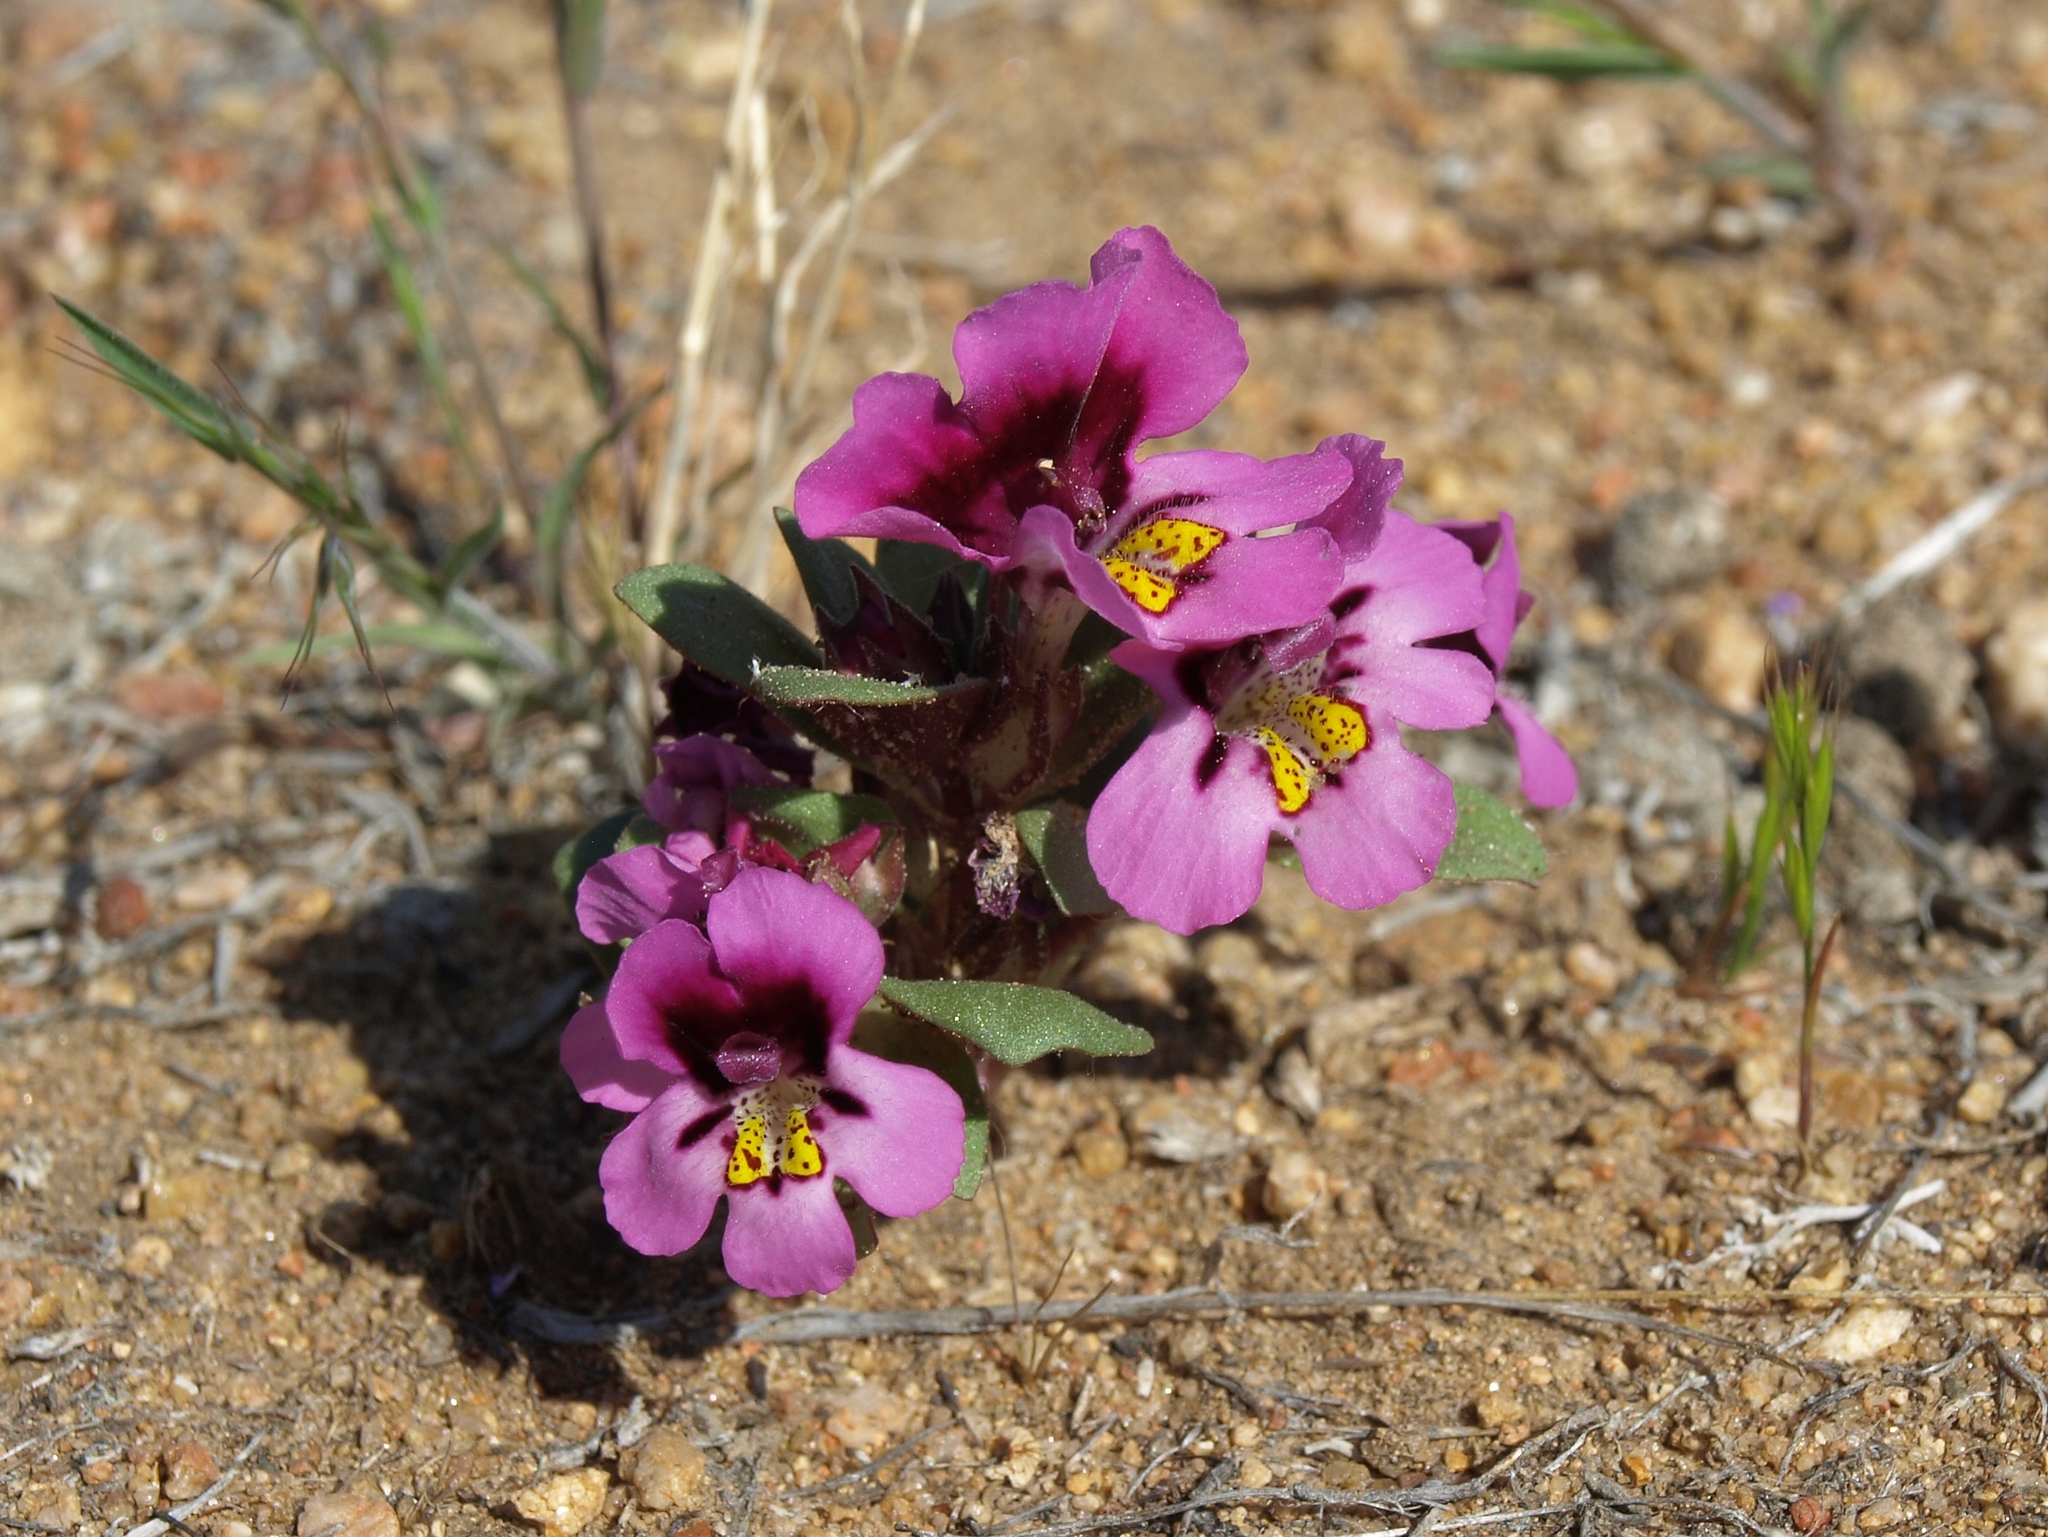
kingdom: Plantae
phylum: Tracheophyta
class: Magnoliopsida
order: Lamiales
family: Phrymaceae
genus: Diplacus
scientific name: Diplacus ovatus
